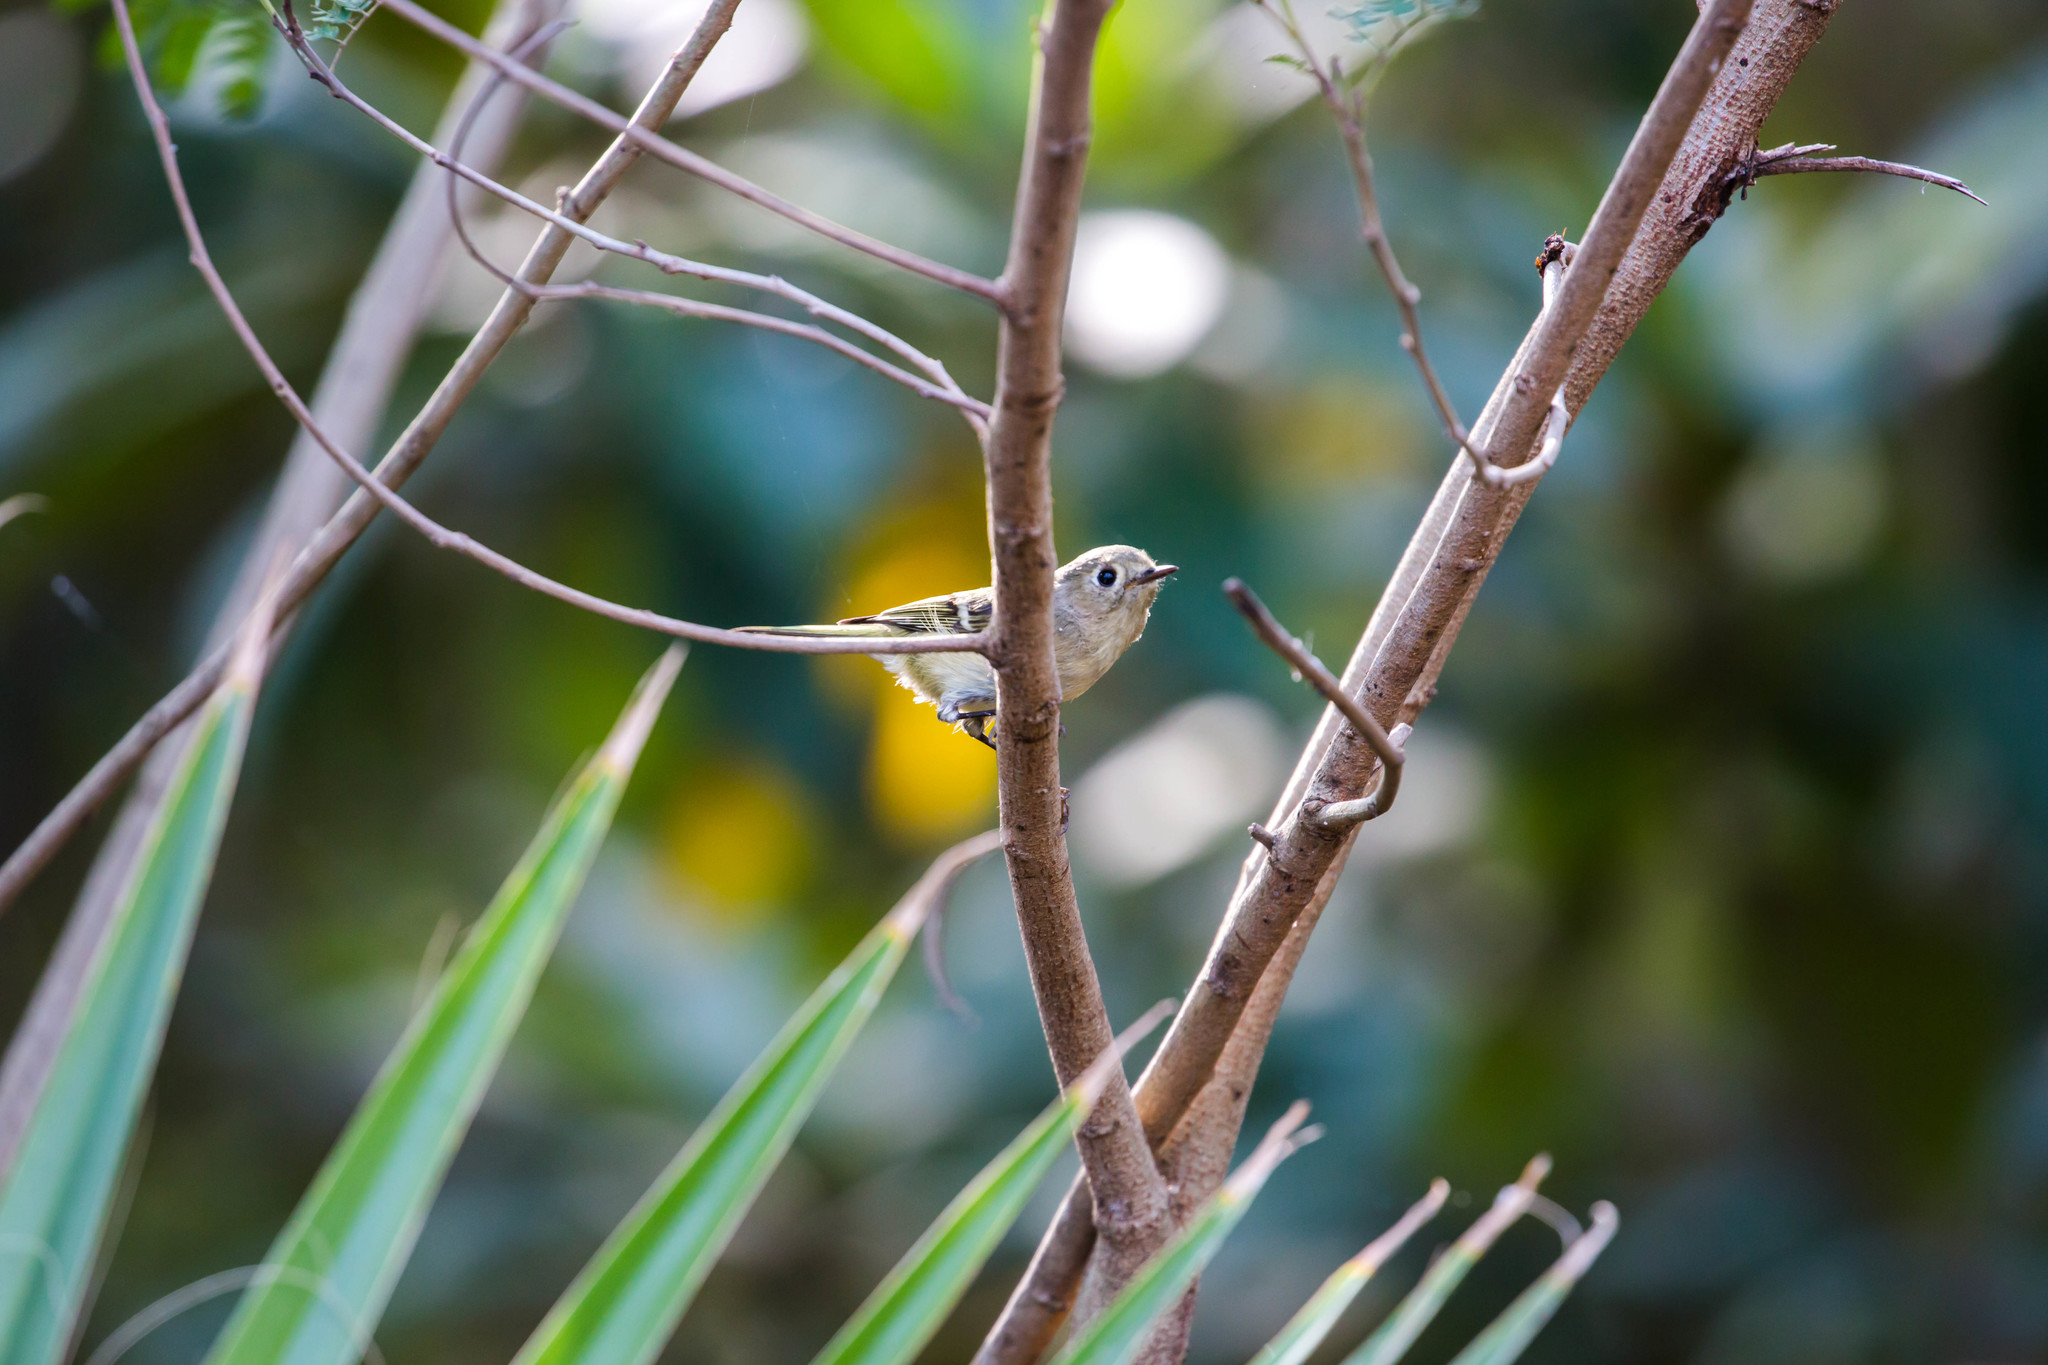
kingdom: Animalia
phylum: Chordata
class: Aves
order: Passeriformes
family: Regulidae
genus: Regulus
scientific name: Regulus calendula
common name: Ruby-crowned kinglet
